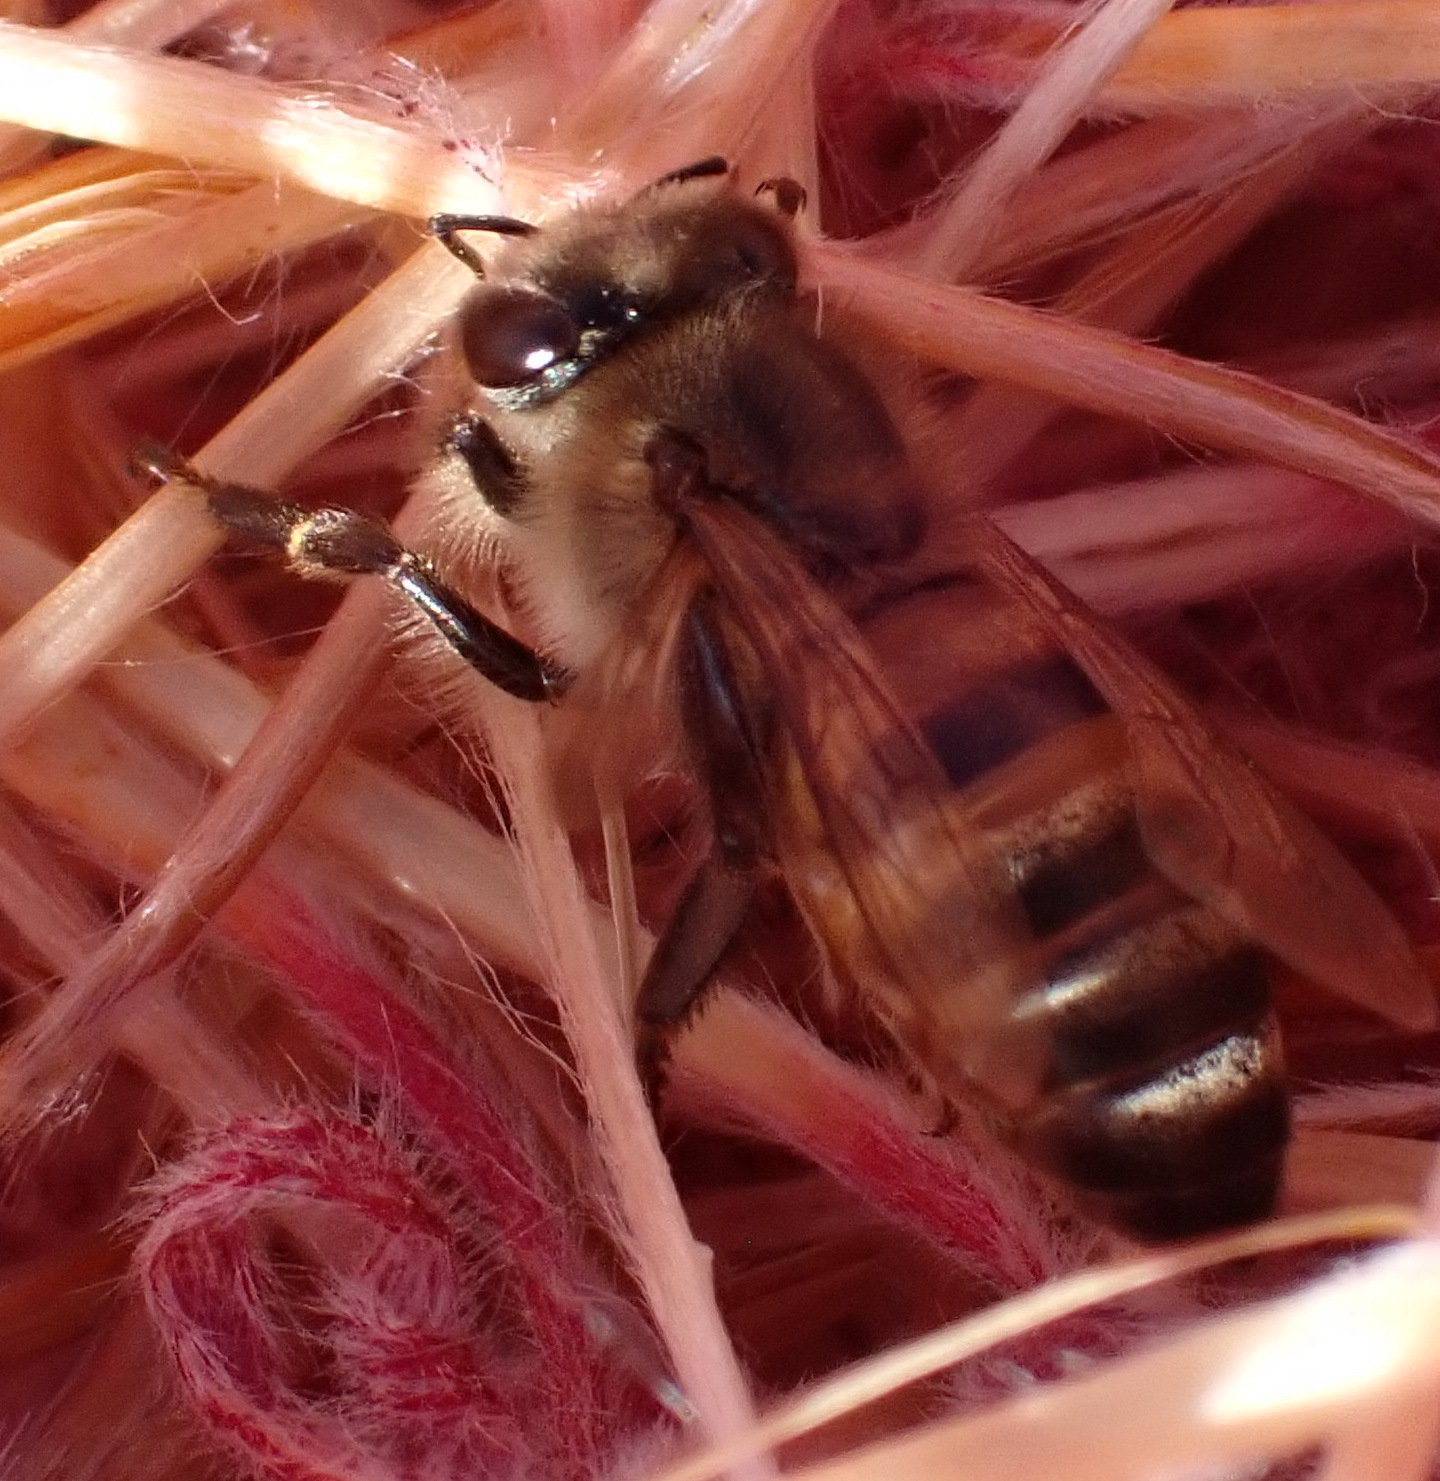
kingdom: Animalia
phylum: Arthropoda
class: Insecta
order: Hymenoptera
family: Apidae
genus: Apis
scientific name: Apis mellifera
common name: Honey bee
